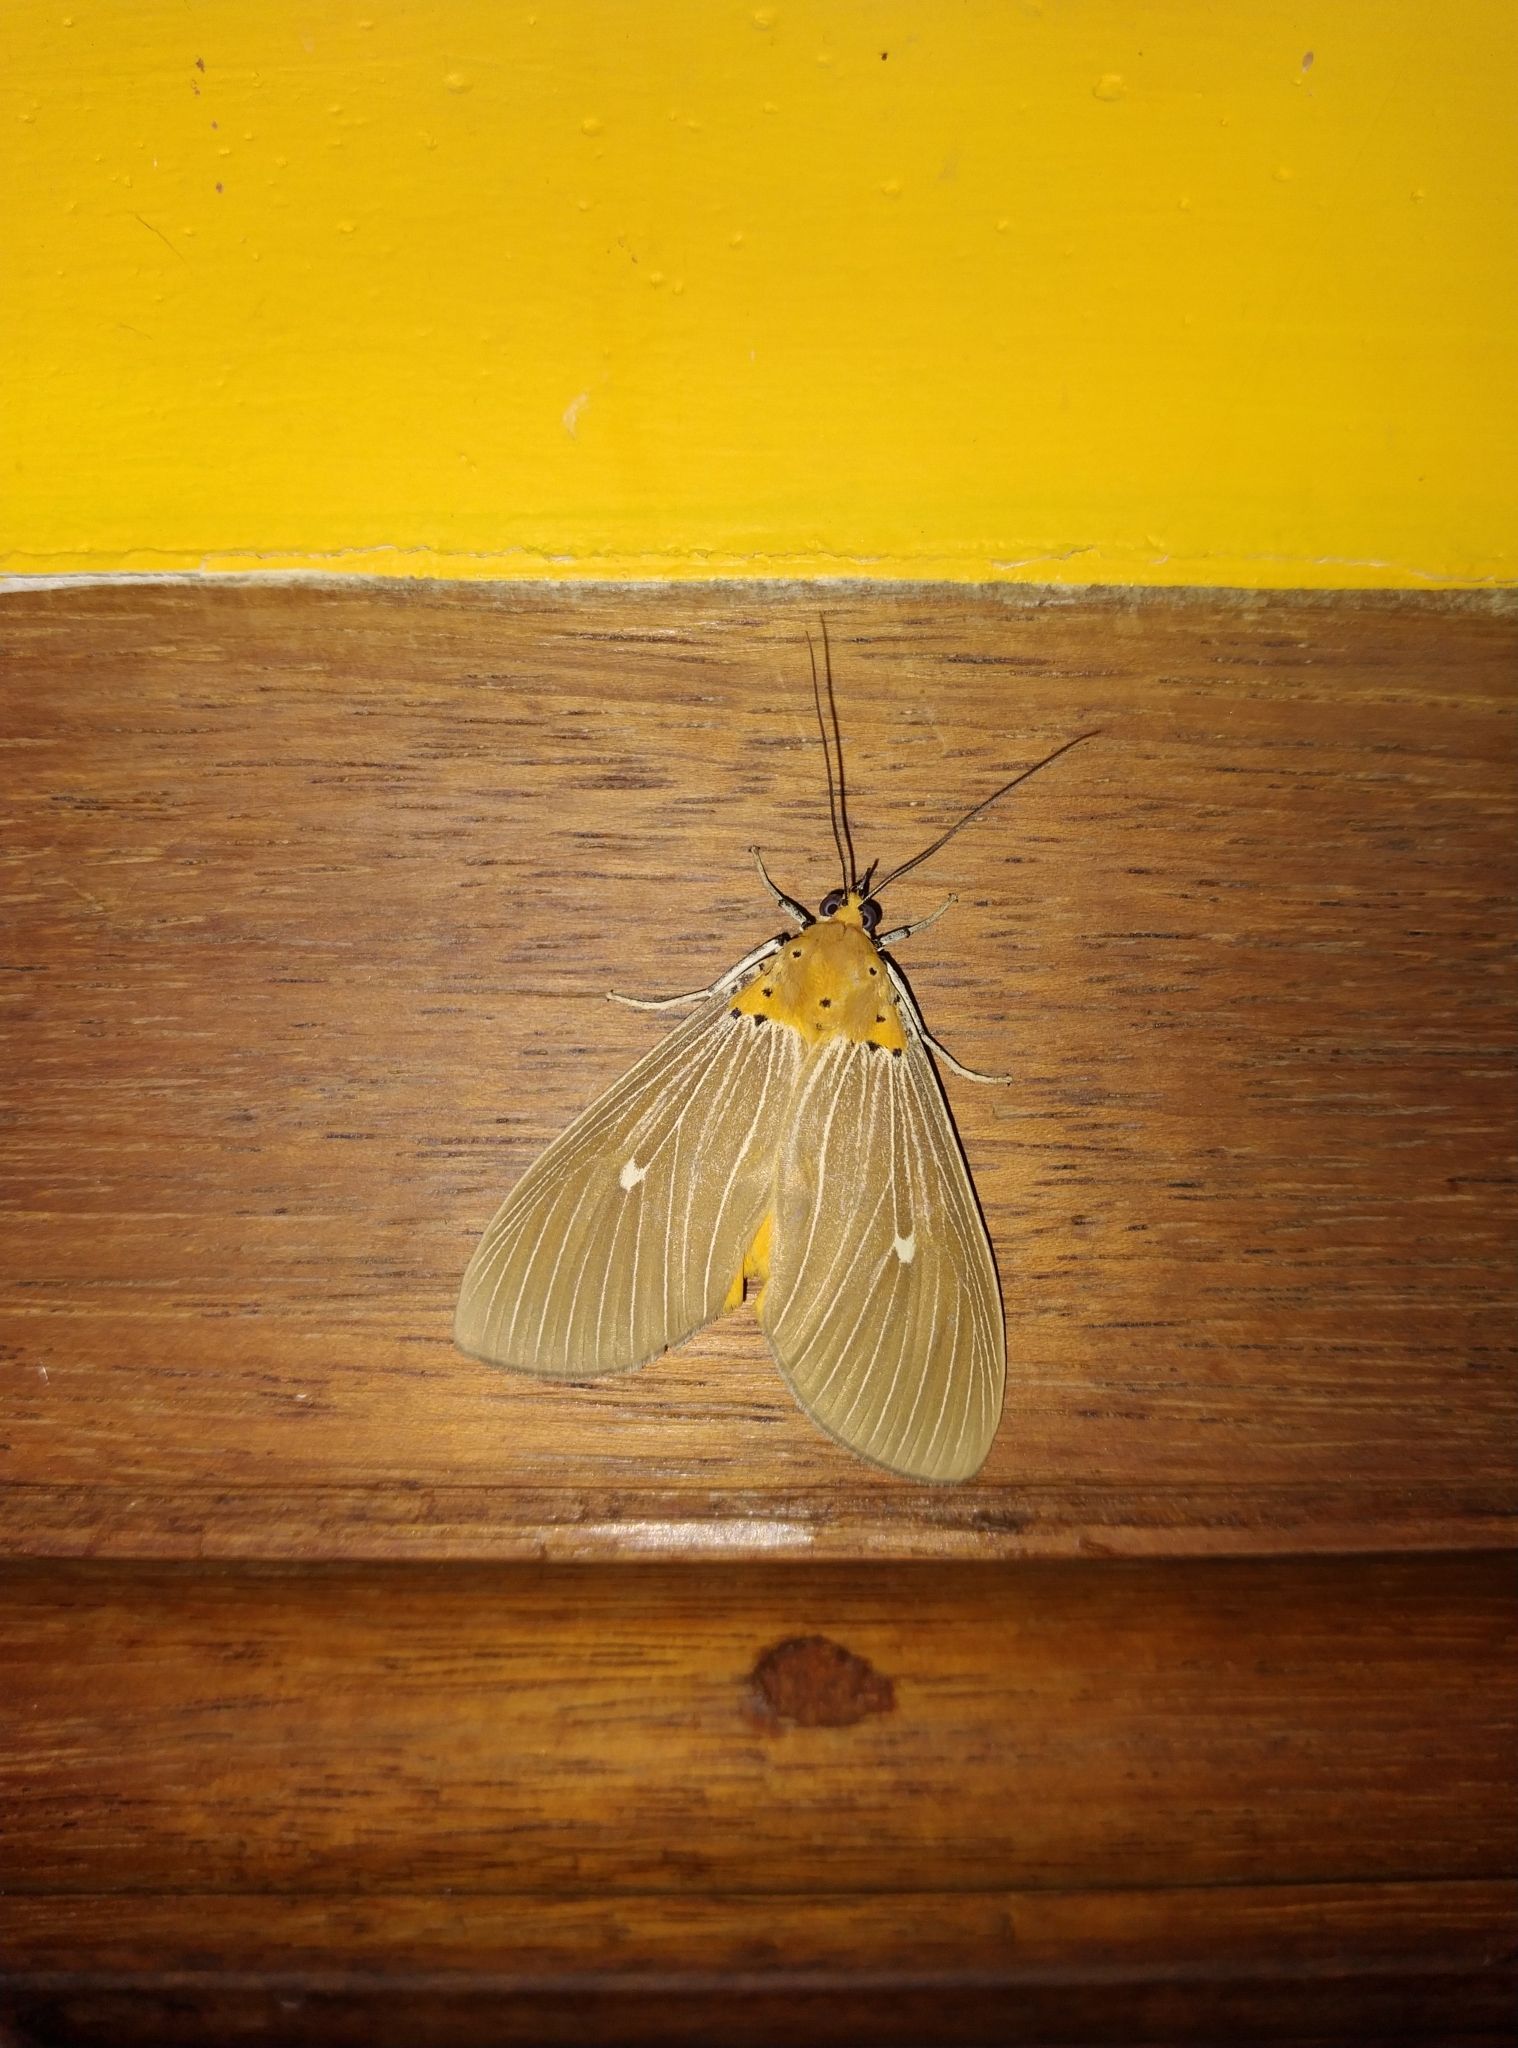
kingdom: Animalia
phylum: Arthropoda
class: Insecta
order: Lepidoptera
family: Erebidae
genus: Asota
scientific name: Asota caricae
